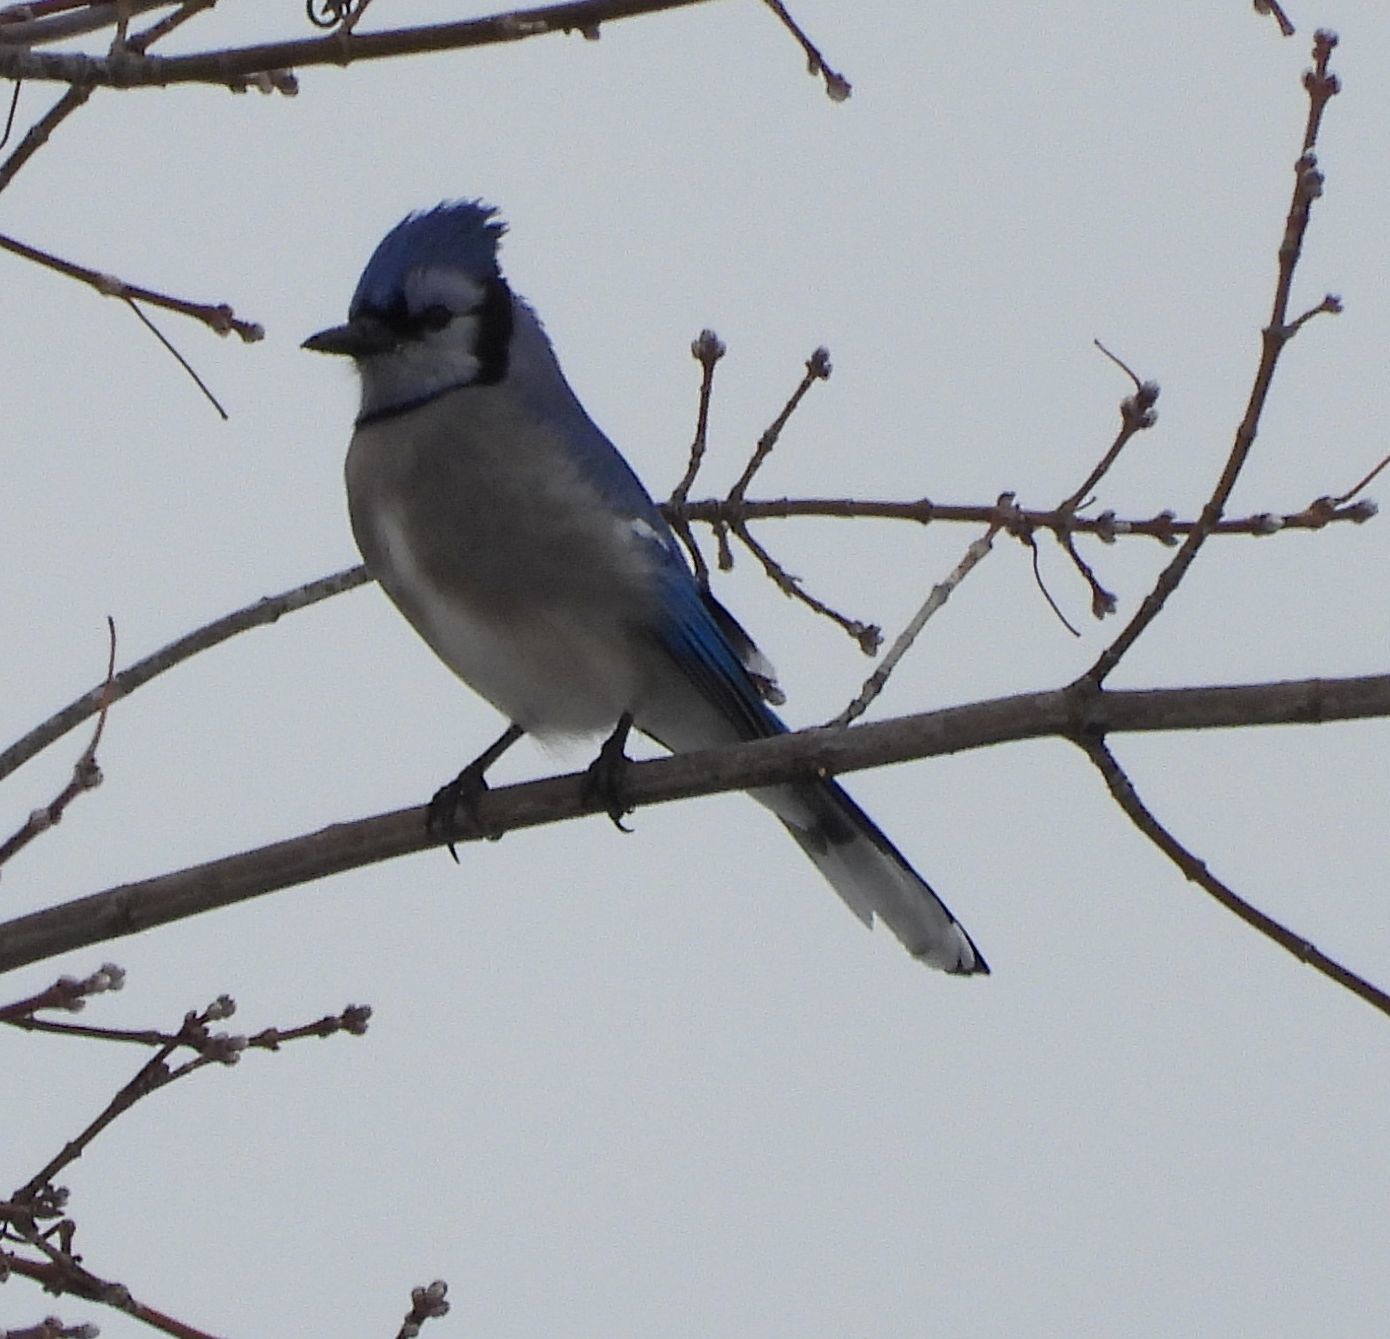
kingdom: Animalia
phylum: Chordata
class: Aves
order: Passeriformes
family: Corvidae
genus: Cyanocitta
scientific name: Cyanocitta cristata
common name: Blue jay
